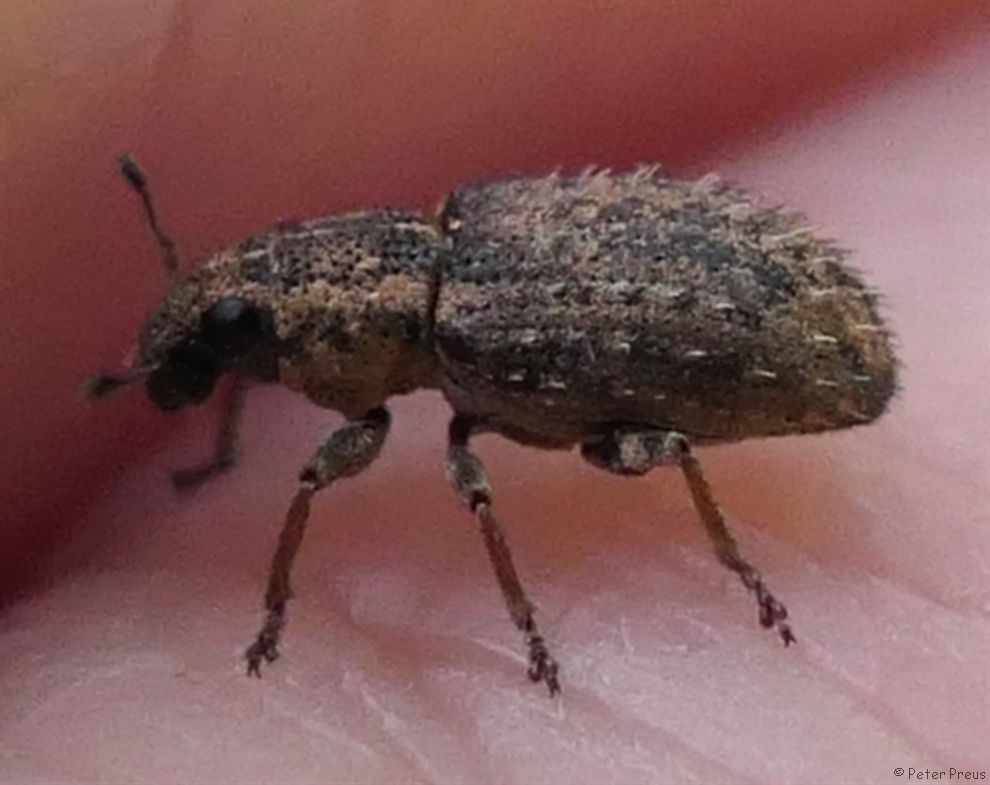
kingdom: Animalia
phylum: Arthropoda
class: Insecta
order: Coleoptera
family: Curculionidae
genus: Sitona
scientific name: Sitona hispidulus
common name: Clover weevil
